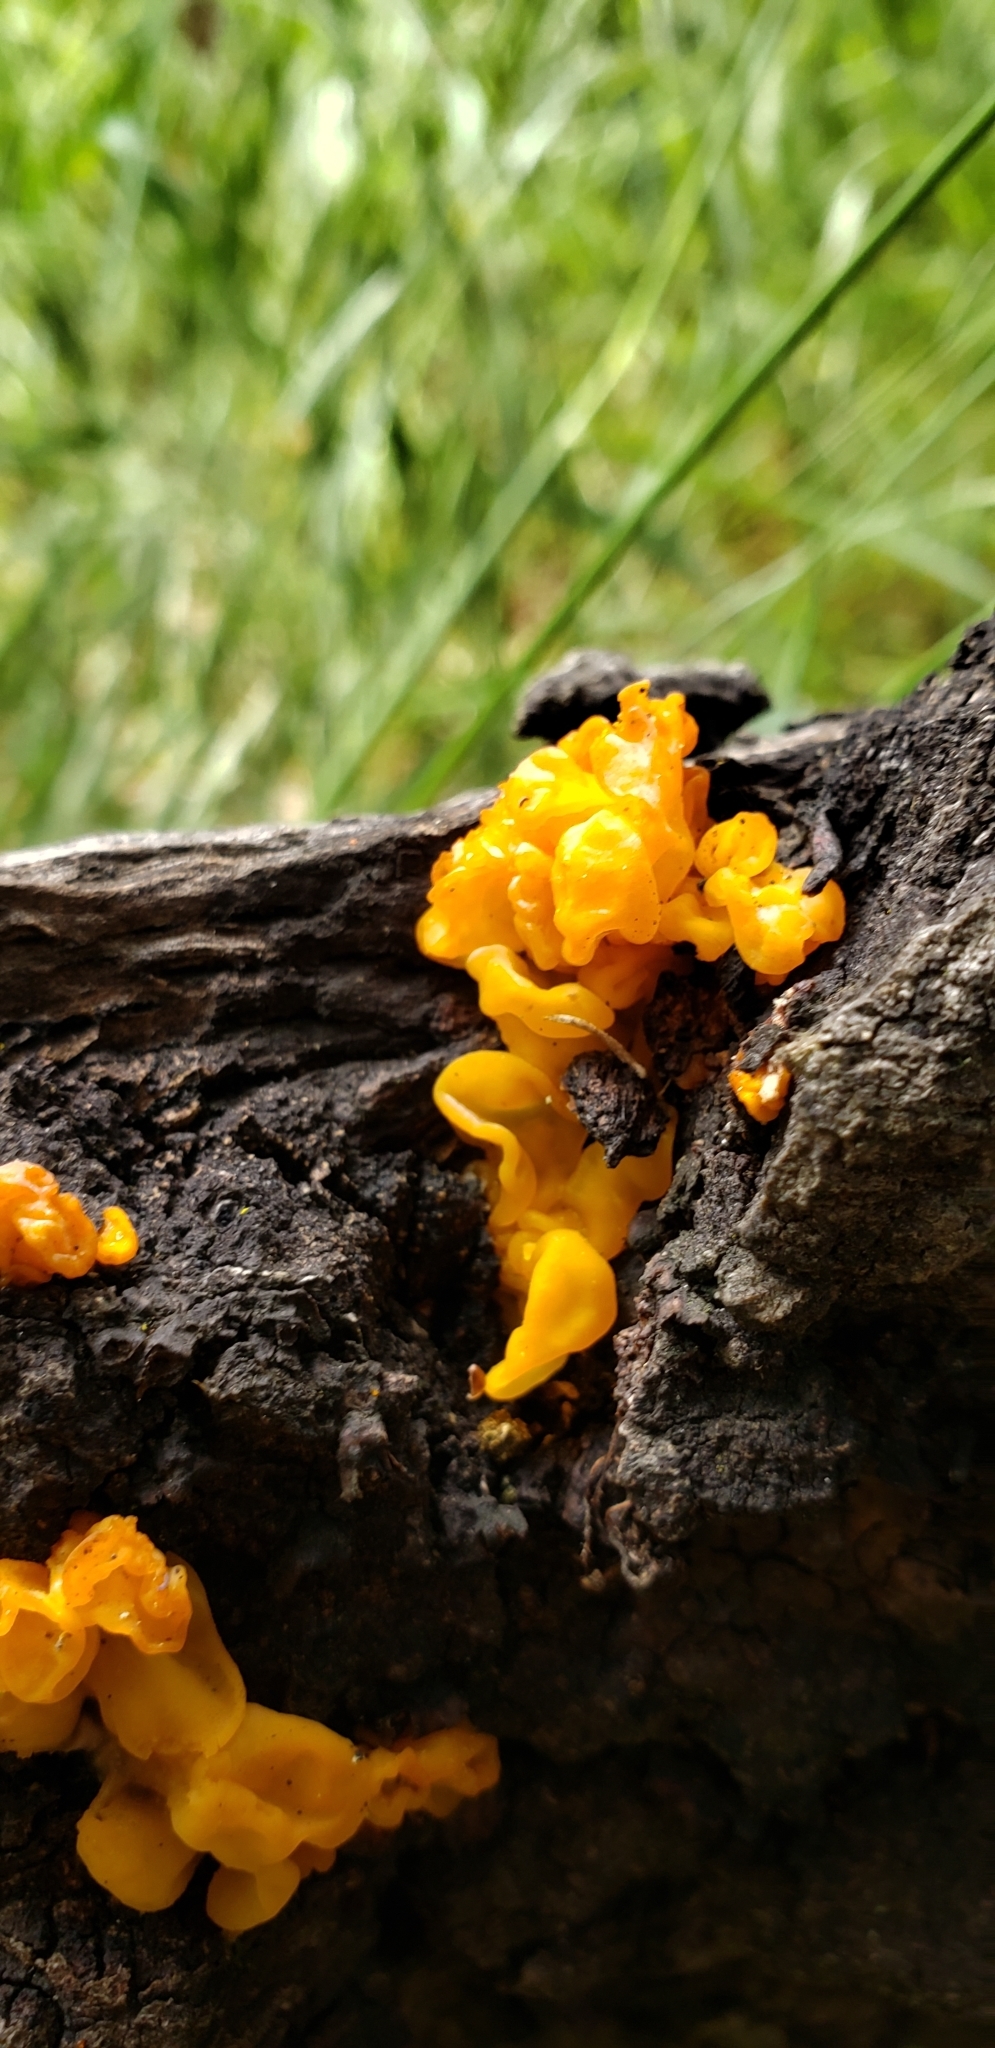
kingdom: Fungi
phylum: Basidiomycota
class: Tremellomycetes
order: Tremellales
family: Naemateliaceae
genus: Naematelia
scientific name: Naematelia aurantia
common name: Golden ear
